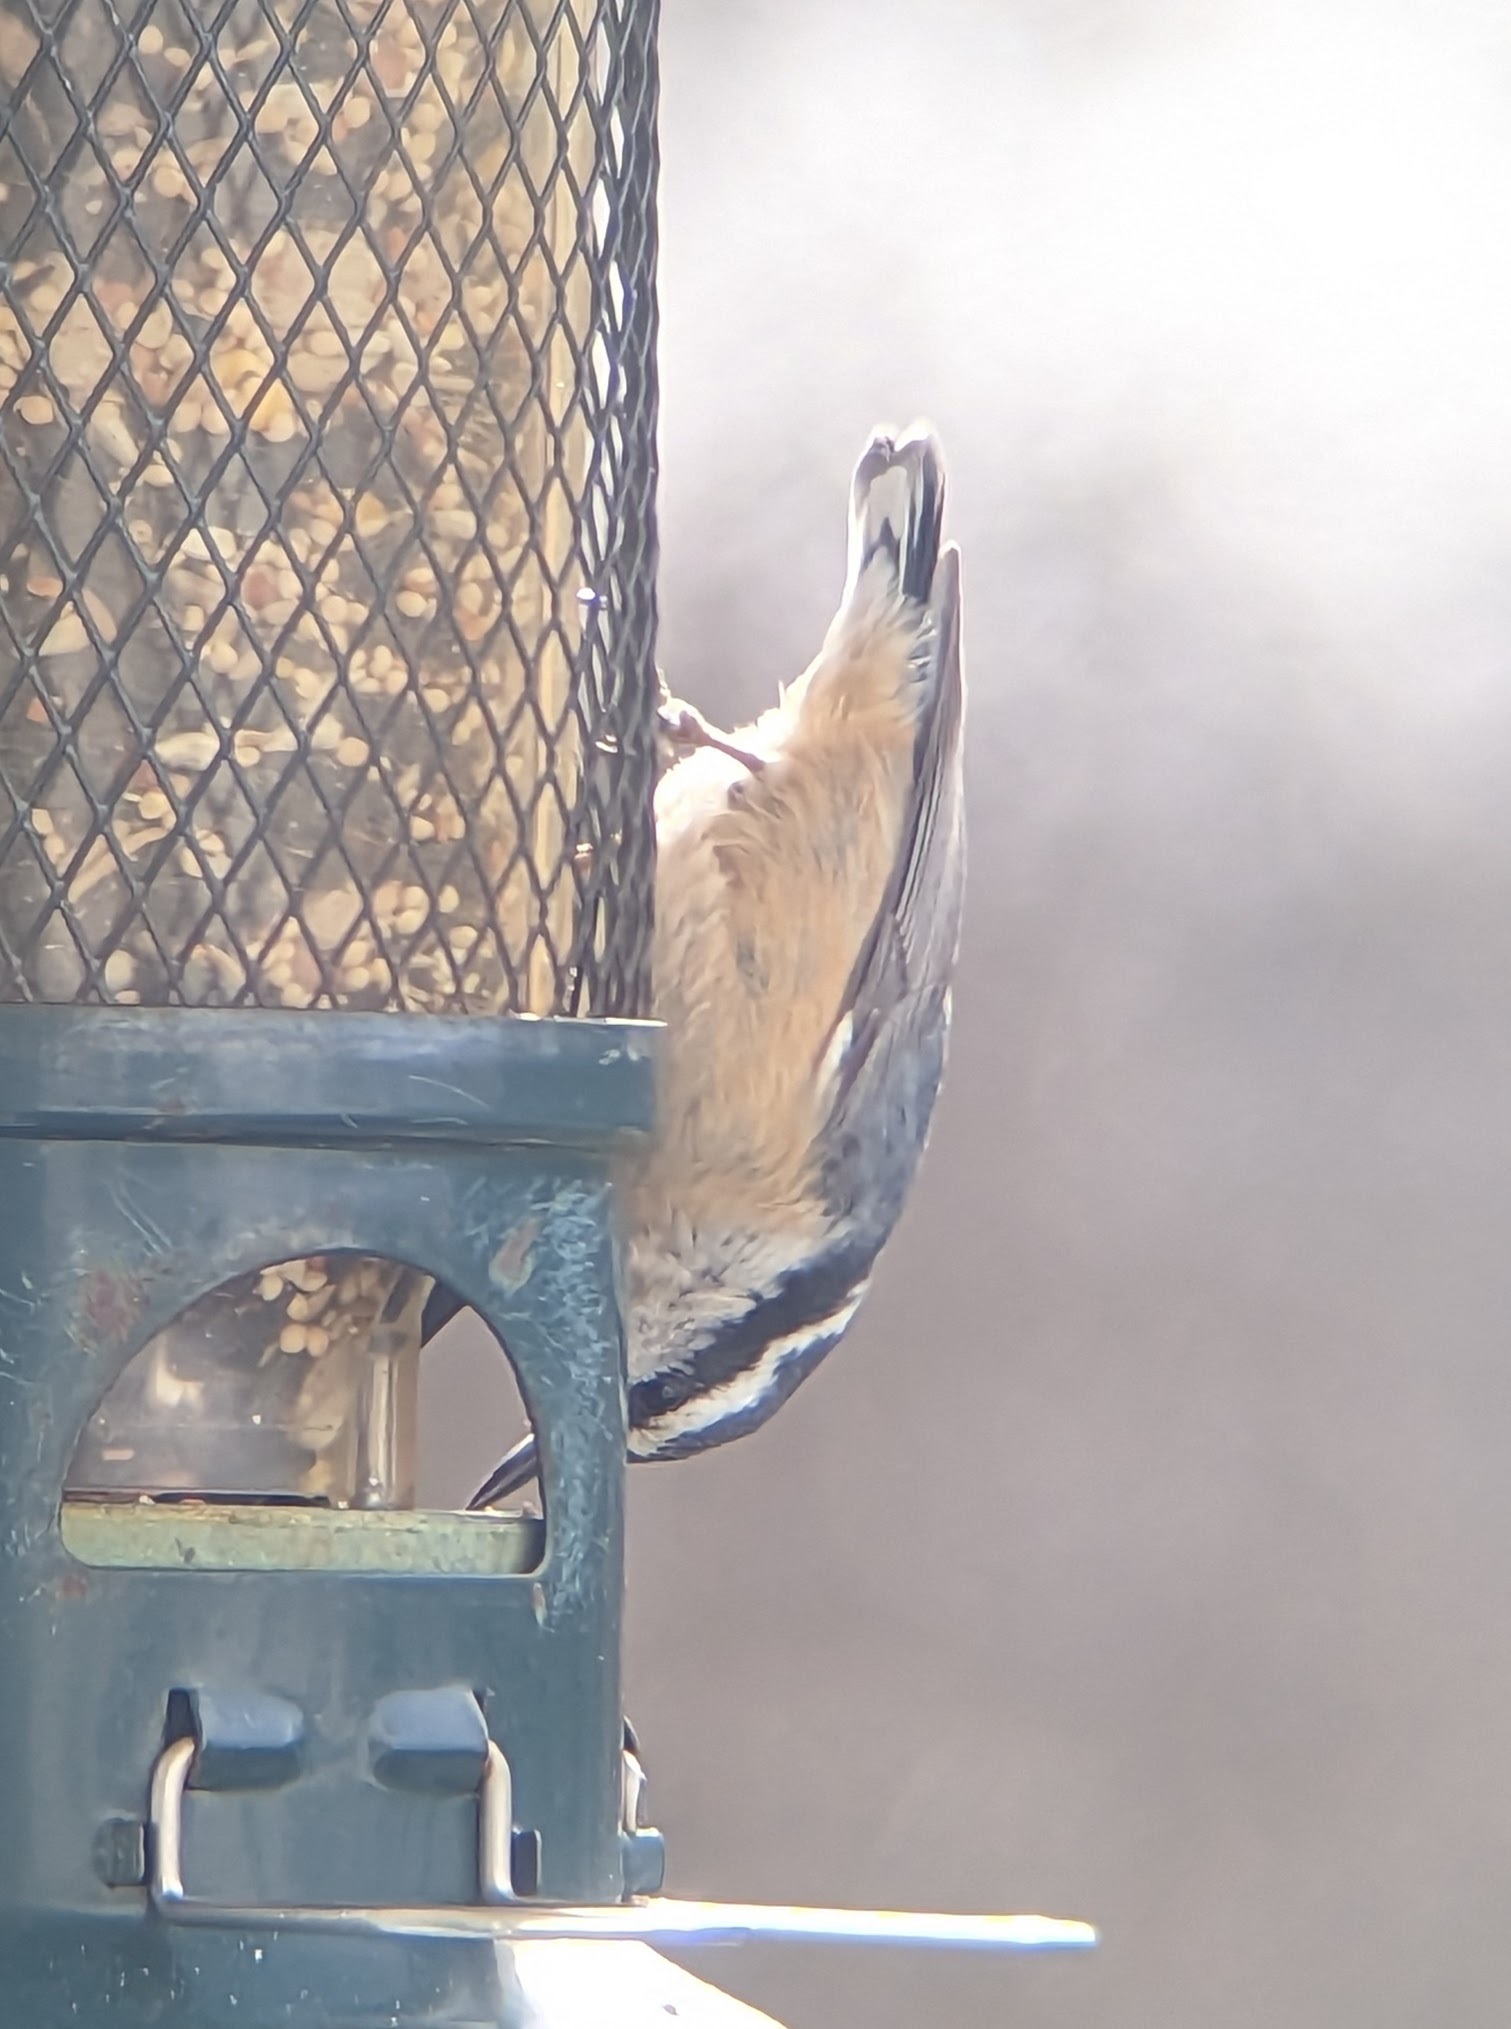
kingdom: Animalia
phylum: Chordata
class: Aves
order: Passeriformes
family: Sittidae
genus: Sitta
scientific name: Sitta canadensis
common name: Red-breasted nuthatch
